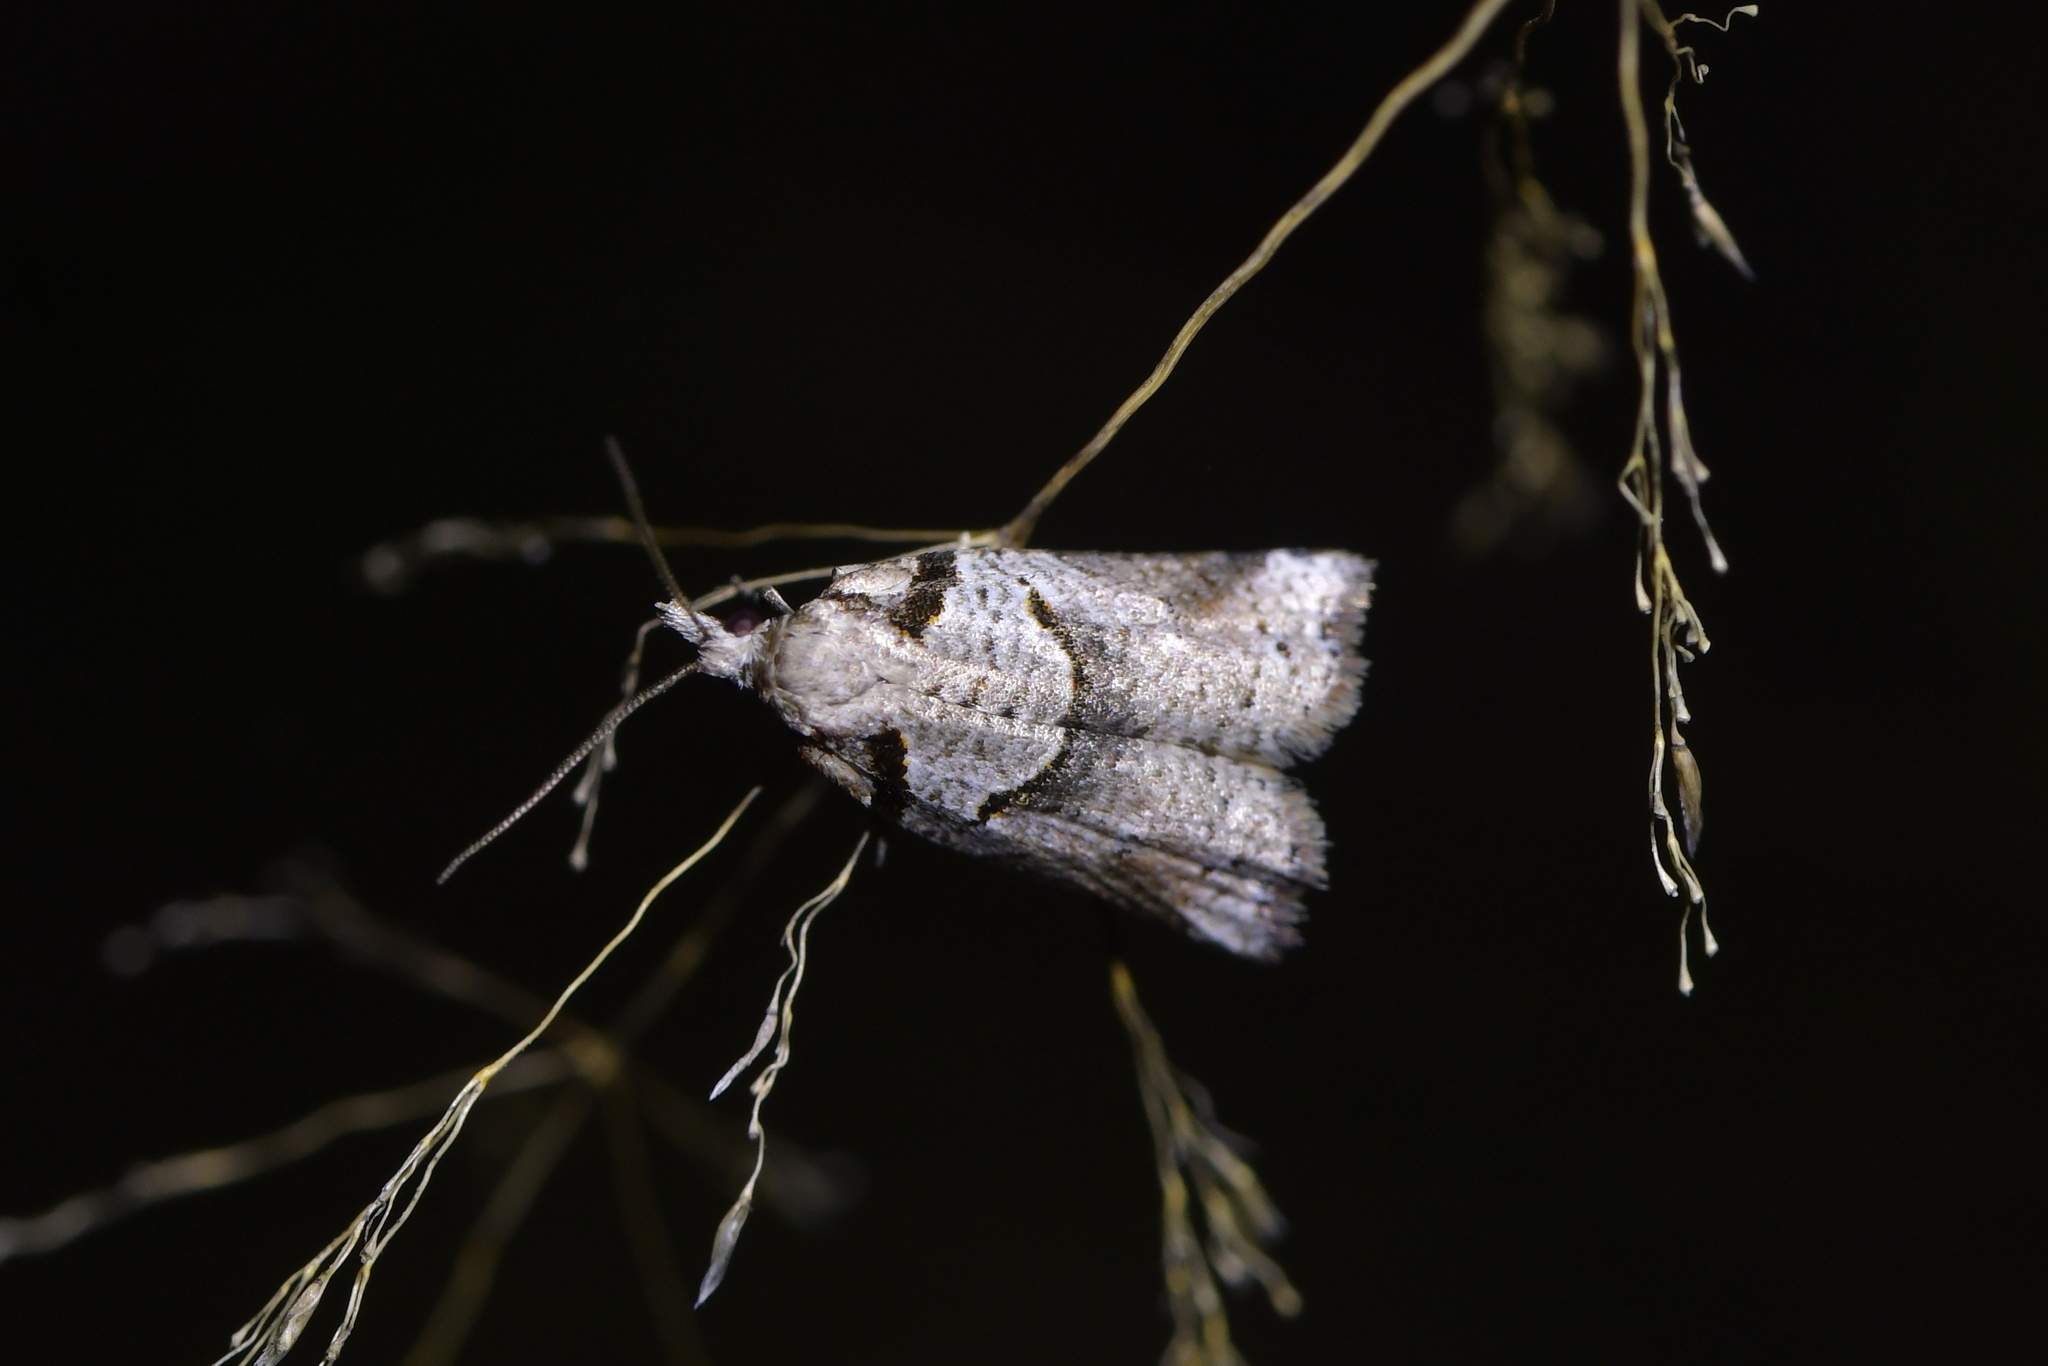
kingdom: Animalia
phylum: Arthropoda
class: Insecta
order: Lepidoptera
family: Tortricidae
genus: Harmologa
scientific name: Harmologa amplexana
